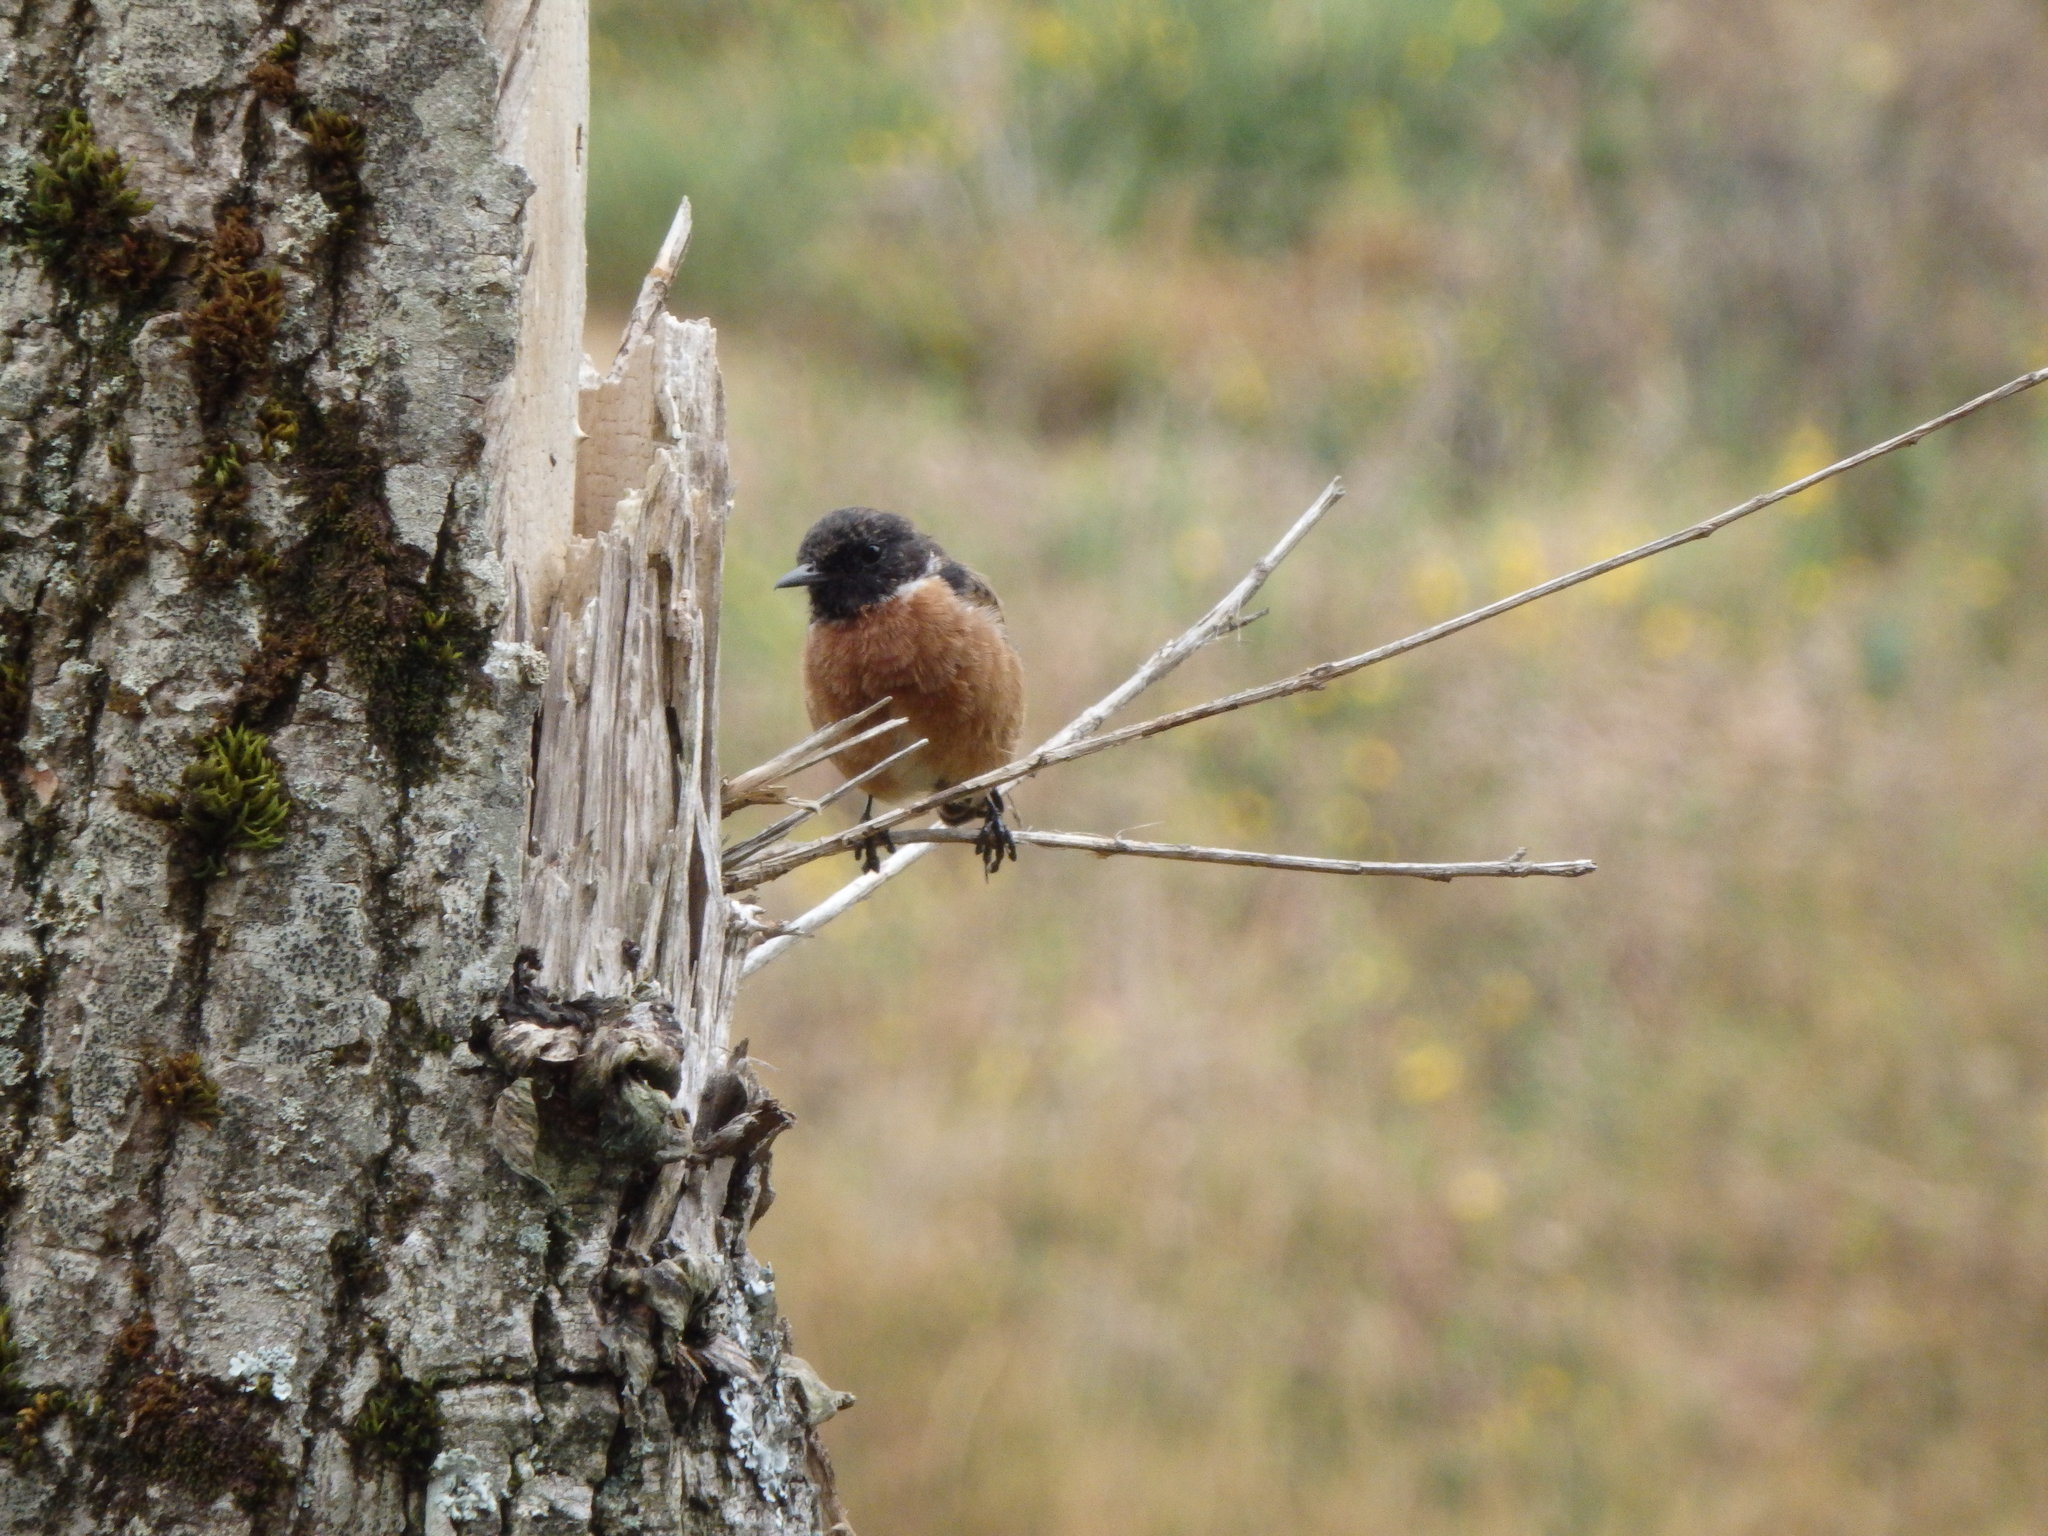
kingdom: Animalia
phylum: Chordata
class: Aves
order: Passeriformes
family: Muscicapidae
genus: Saxicola
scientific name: Saxicola rubicola
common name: European stonechat
